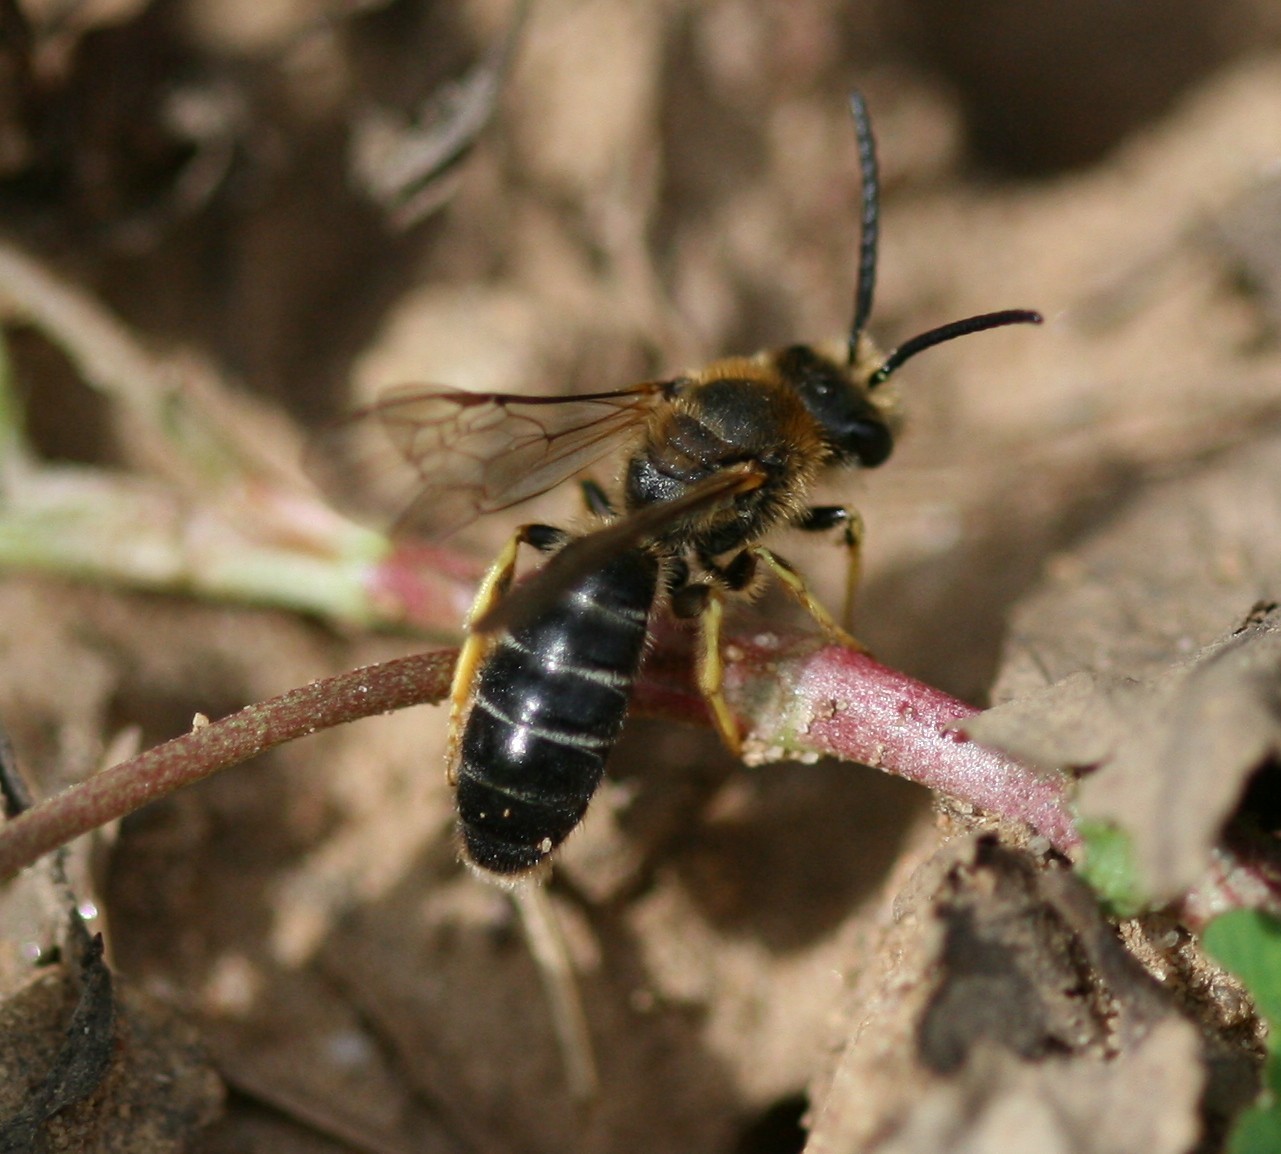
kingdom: Animalia
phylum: Arthropoda
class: Insecta
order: Hymenoptera
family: Halictidae
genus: Halictus
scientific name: Halictus rubicundus
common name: Orange-legged furrow bee
